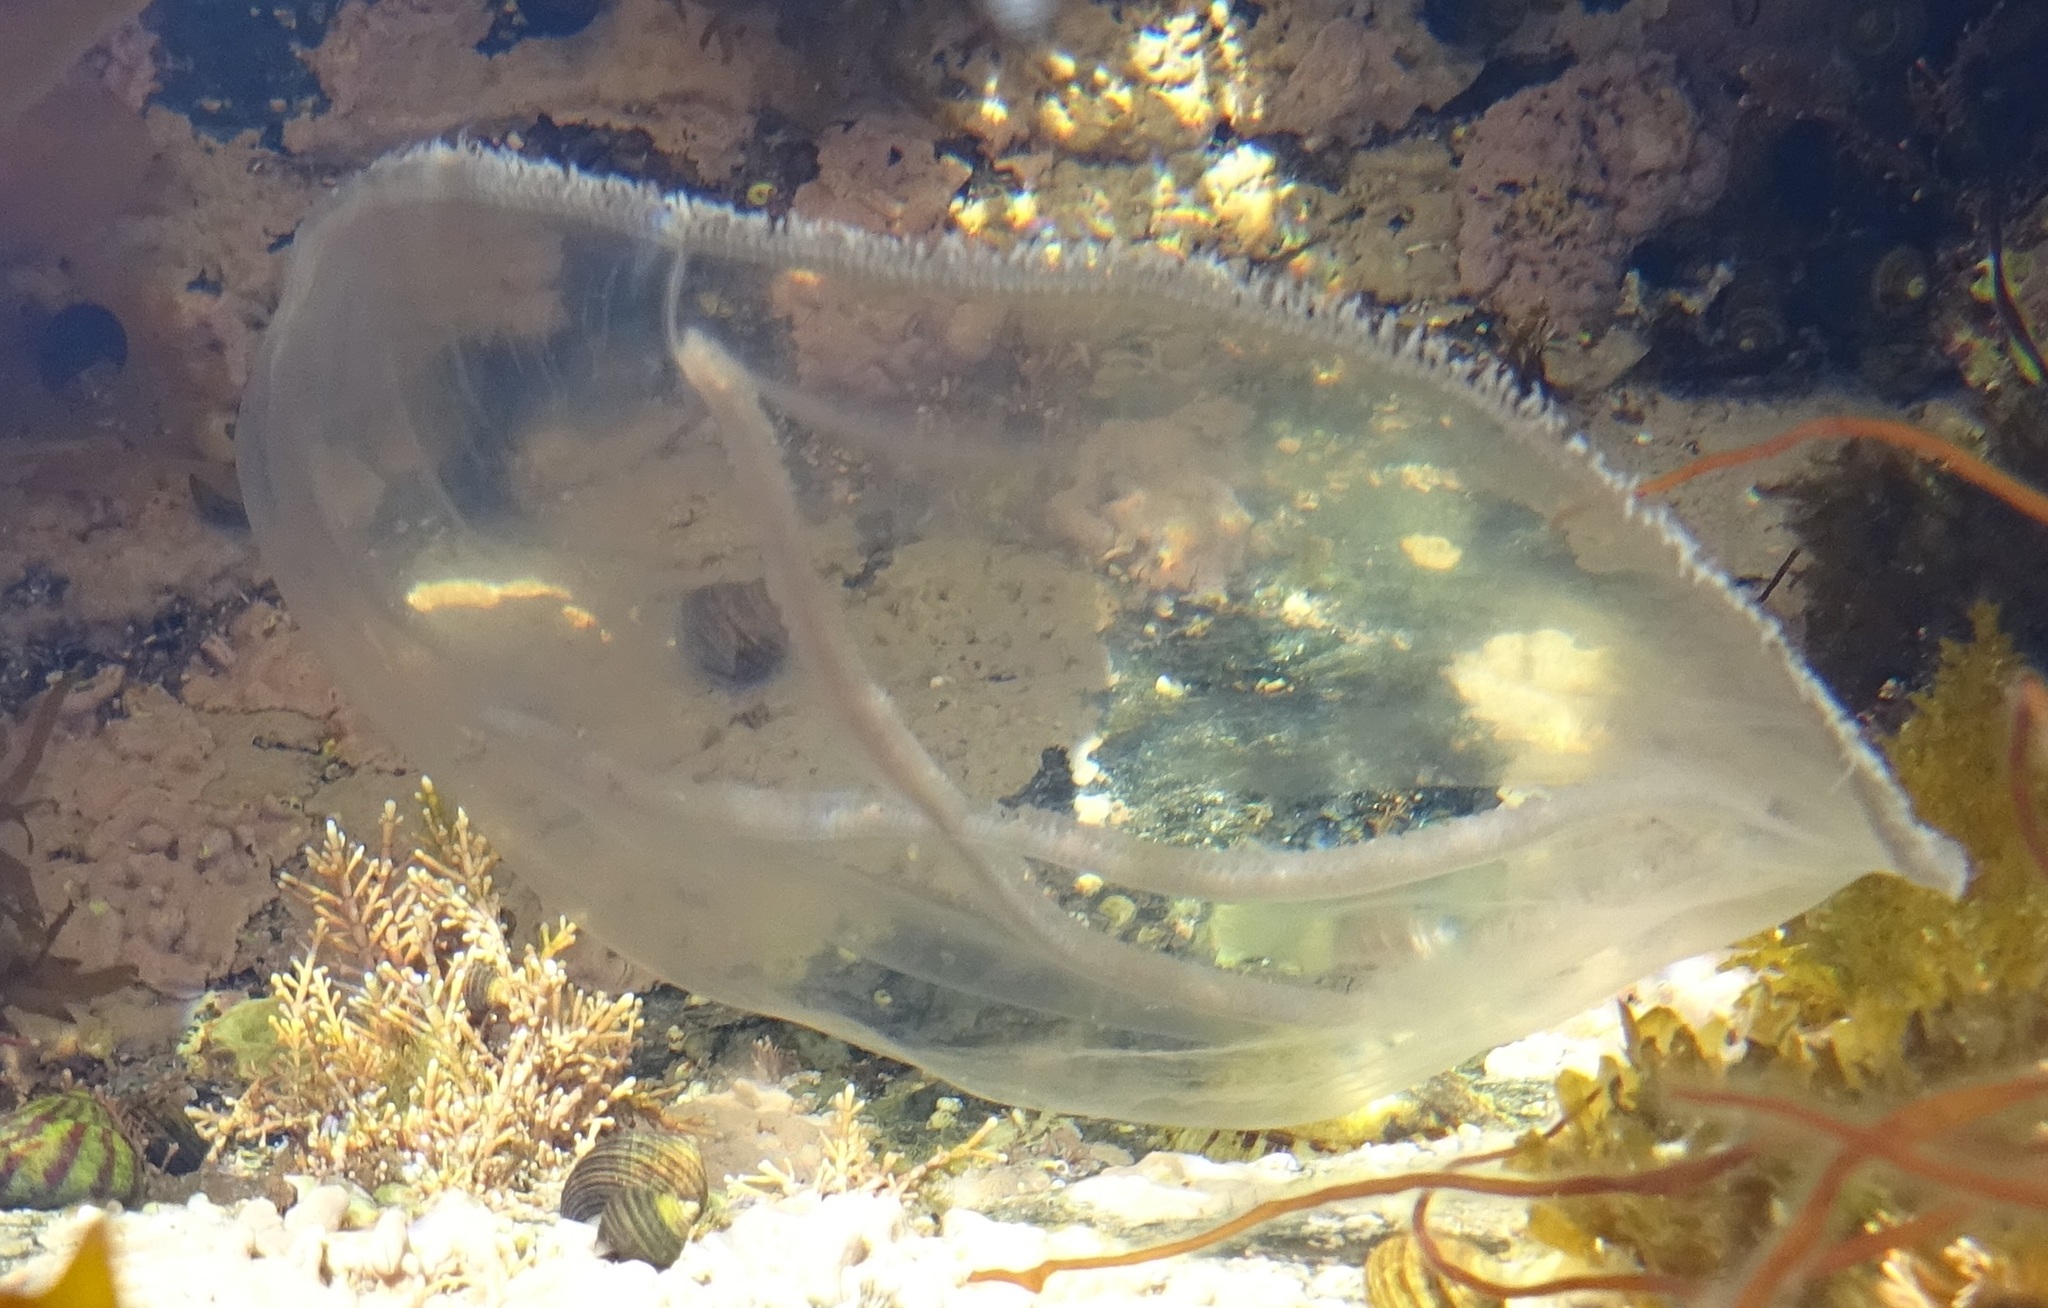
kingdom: Animalia
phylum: Cnidaria
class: Hydrozoa
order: Leptothecata
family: Laodiceidae
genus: Staurostoma
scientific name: Staurostoma mertensii
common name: Whitecross jellyfish
